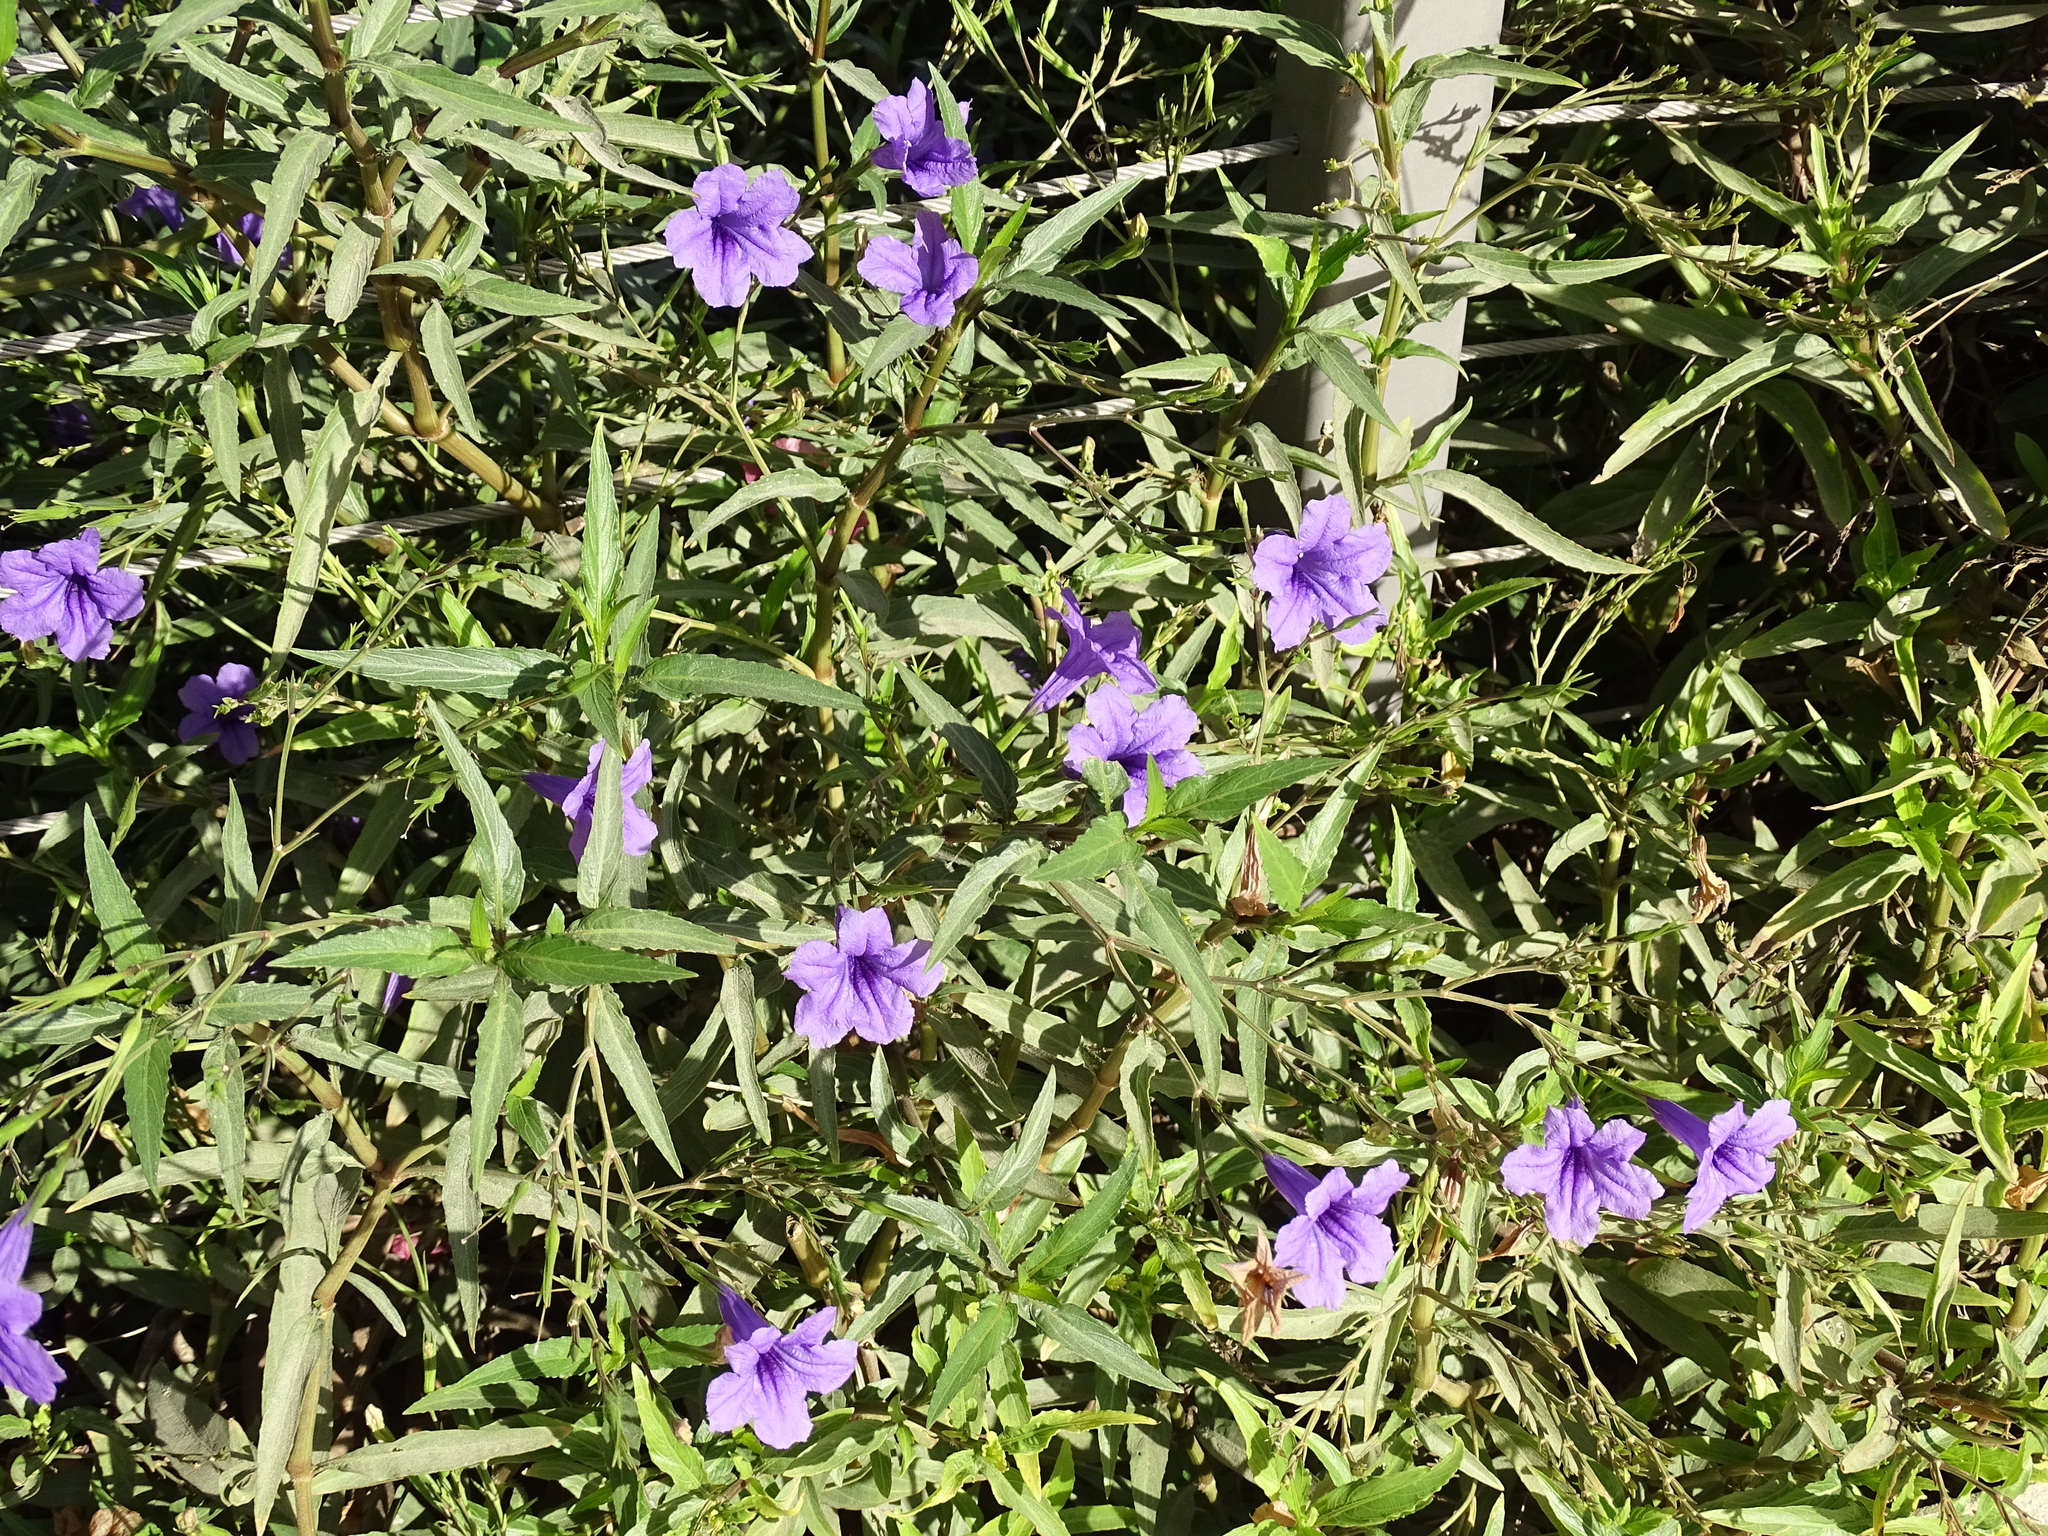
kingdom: Plantae
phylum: Tracheophyta
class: Magnoliopsida
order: Lamiales
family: Acanthaceae
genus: Ruellia
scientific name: Ruellia squarrosa
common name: Water bluebell
